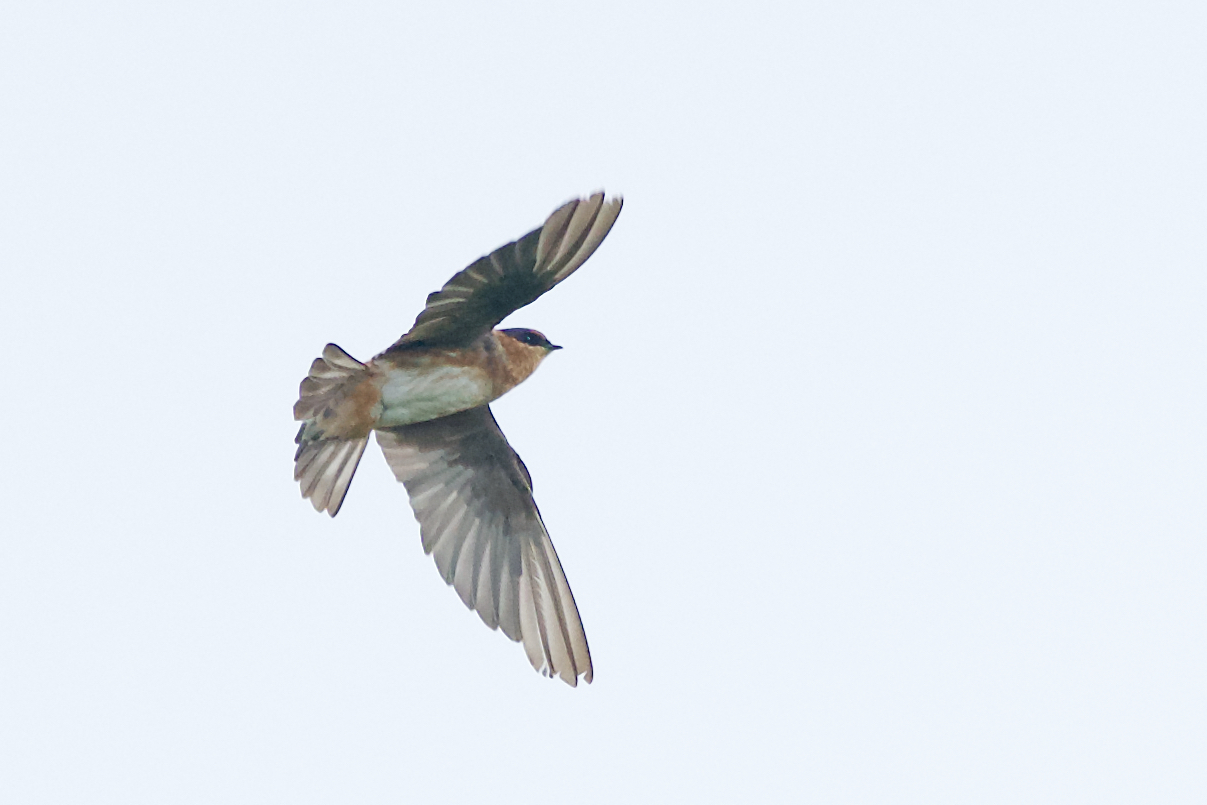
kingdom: Animalia
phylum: Chordata
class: Aves
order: Passeriformes
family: Hirundinidae
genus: Petrochelidon
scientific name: Petrochelidon fulva
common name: Cave swallow
